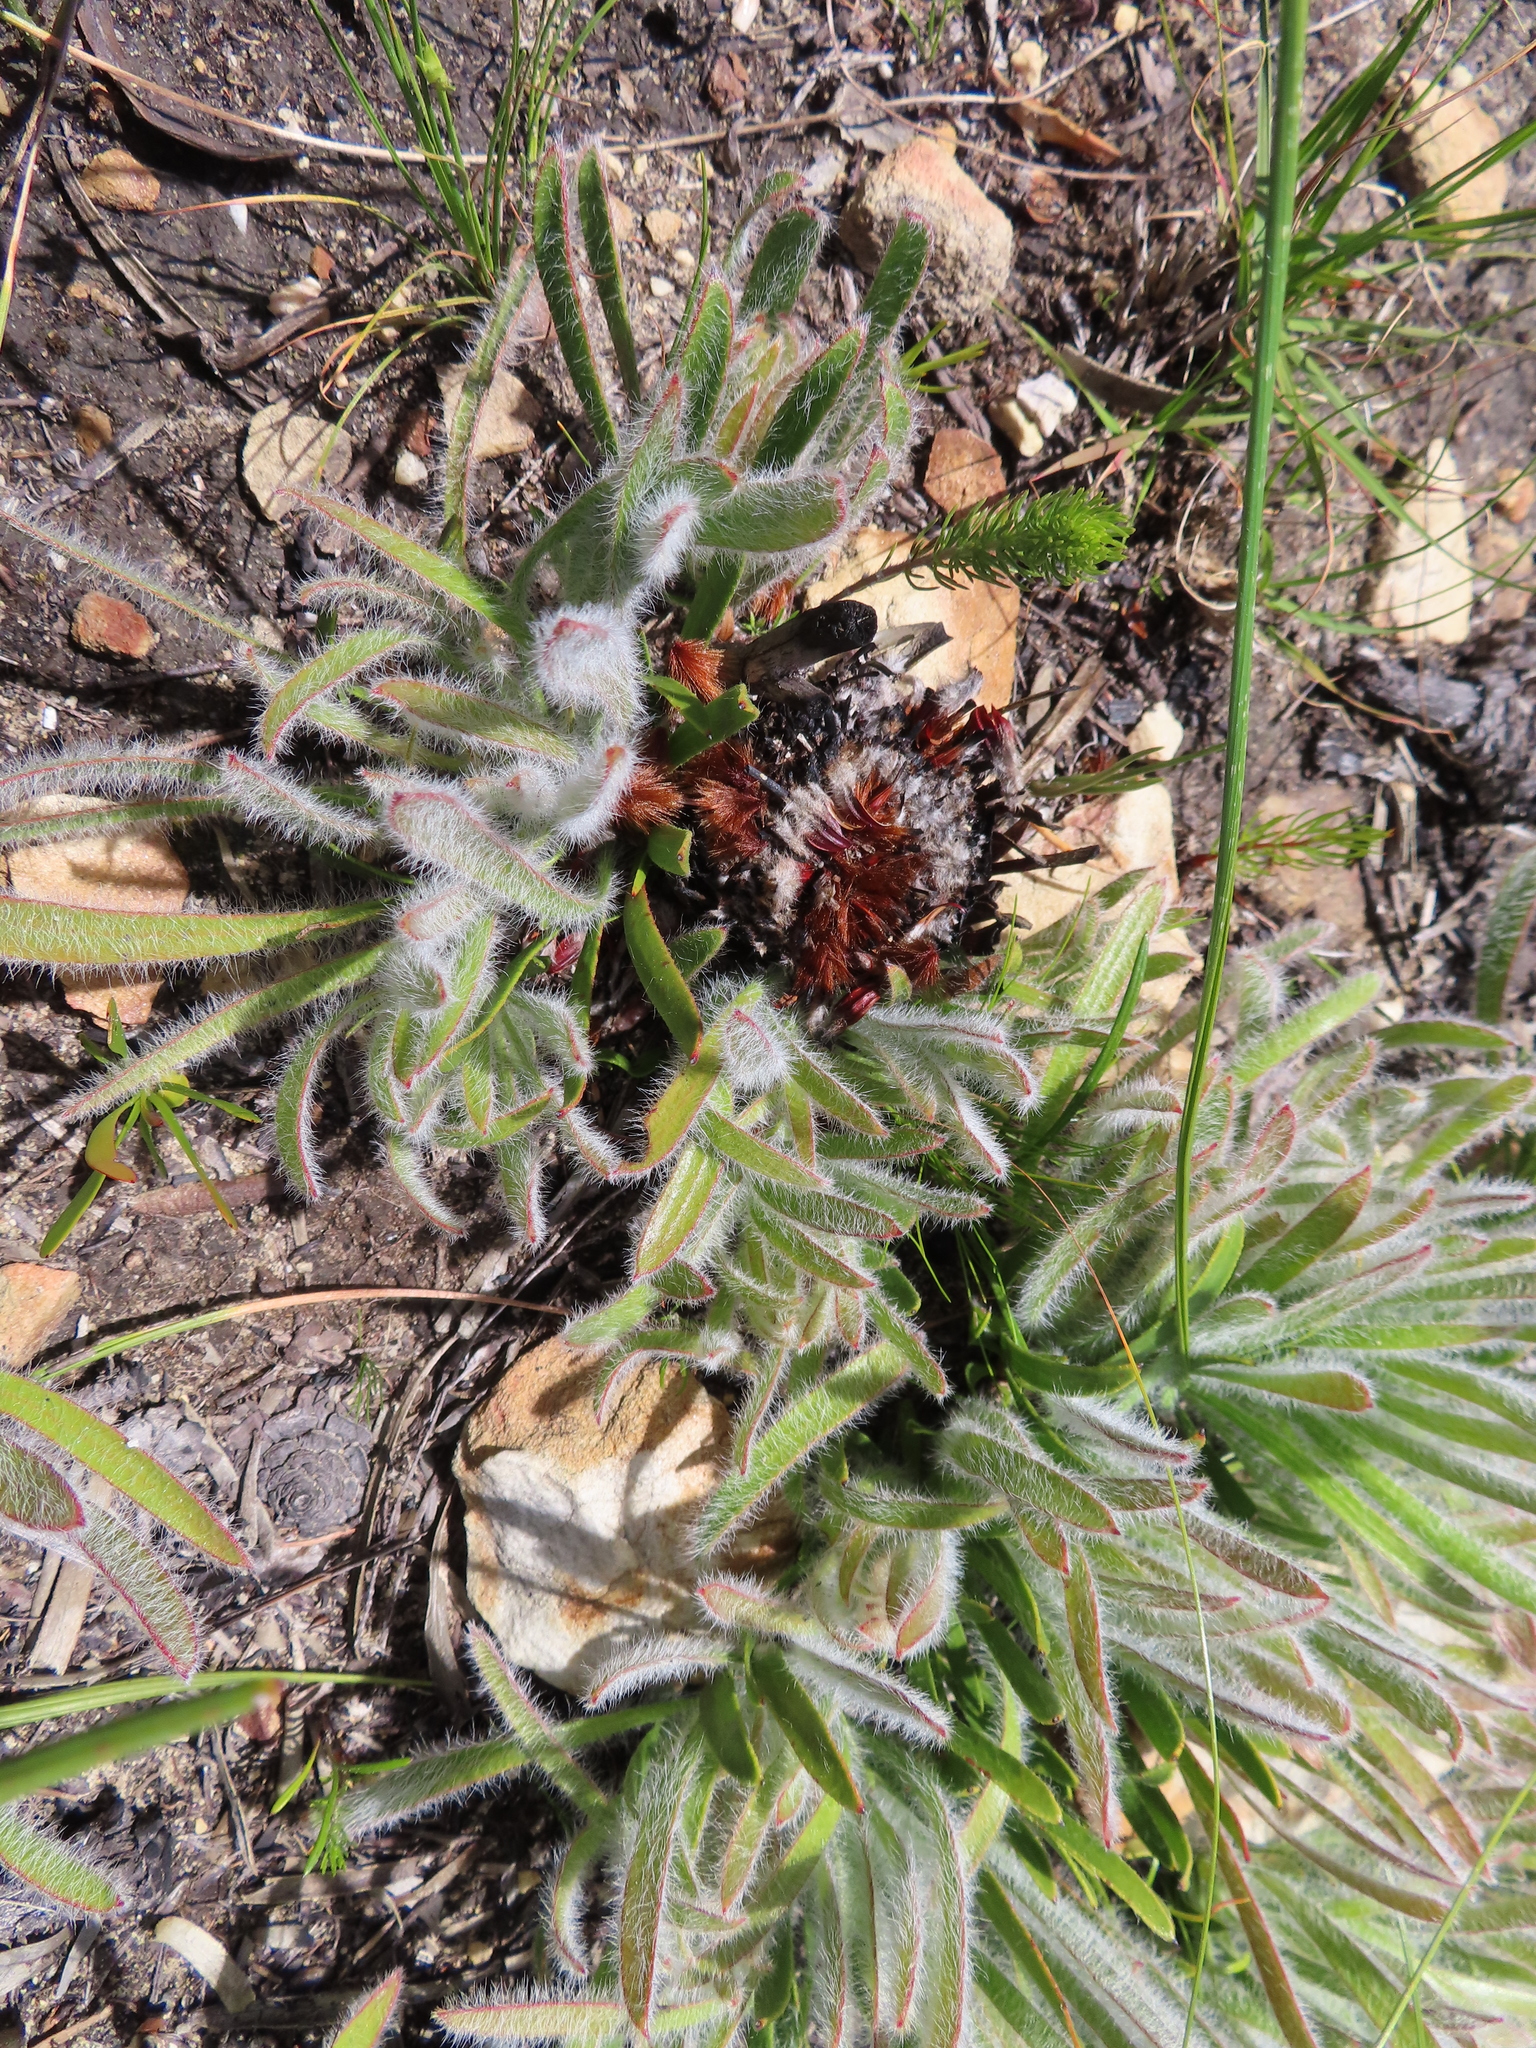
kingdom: Plantae
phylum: Tracheophyta
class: Magnoliopsida
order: Proteales
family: Proteaceae
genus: Protea
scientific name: Protea aspera
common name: Rough-leaf sugarbush
